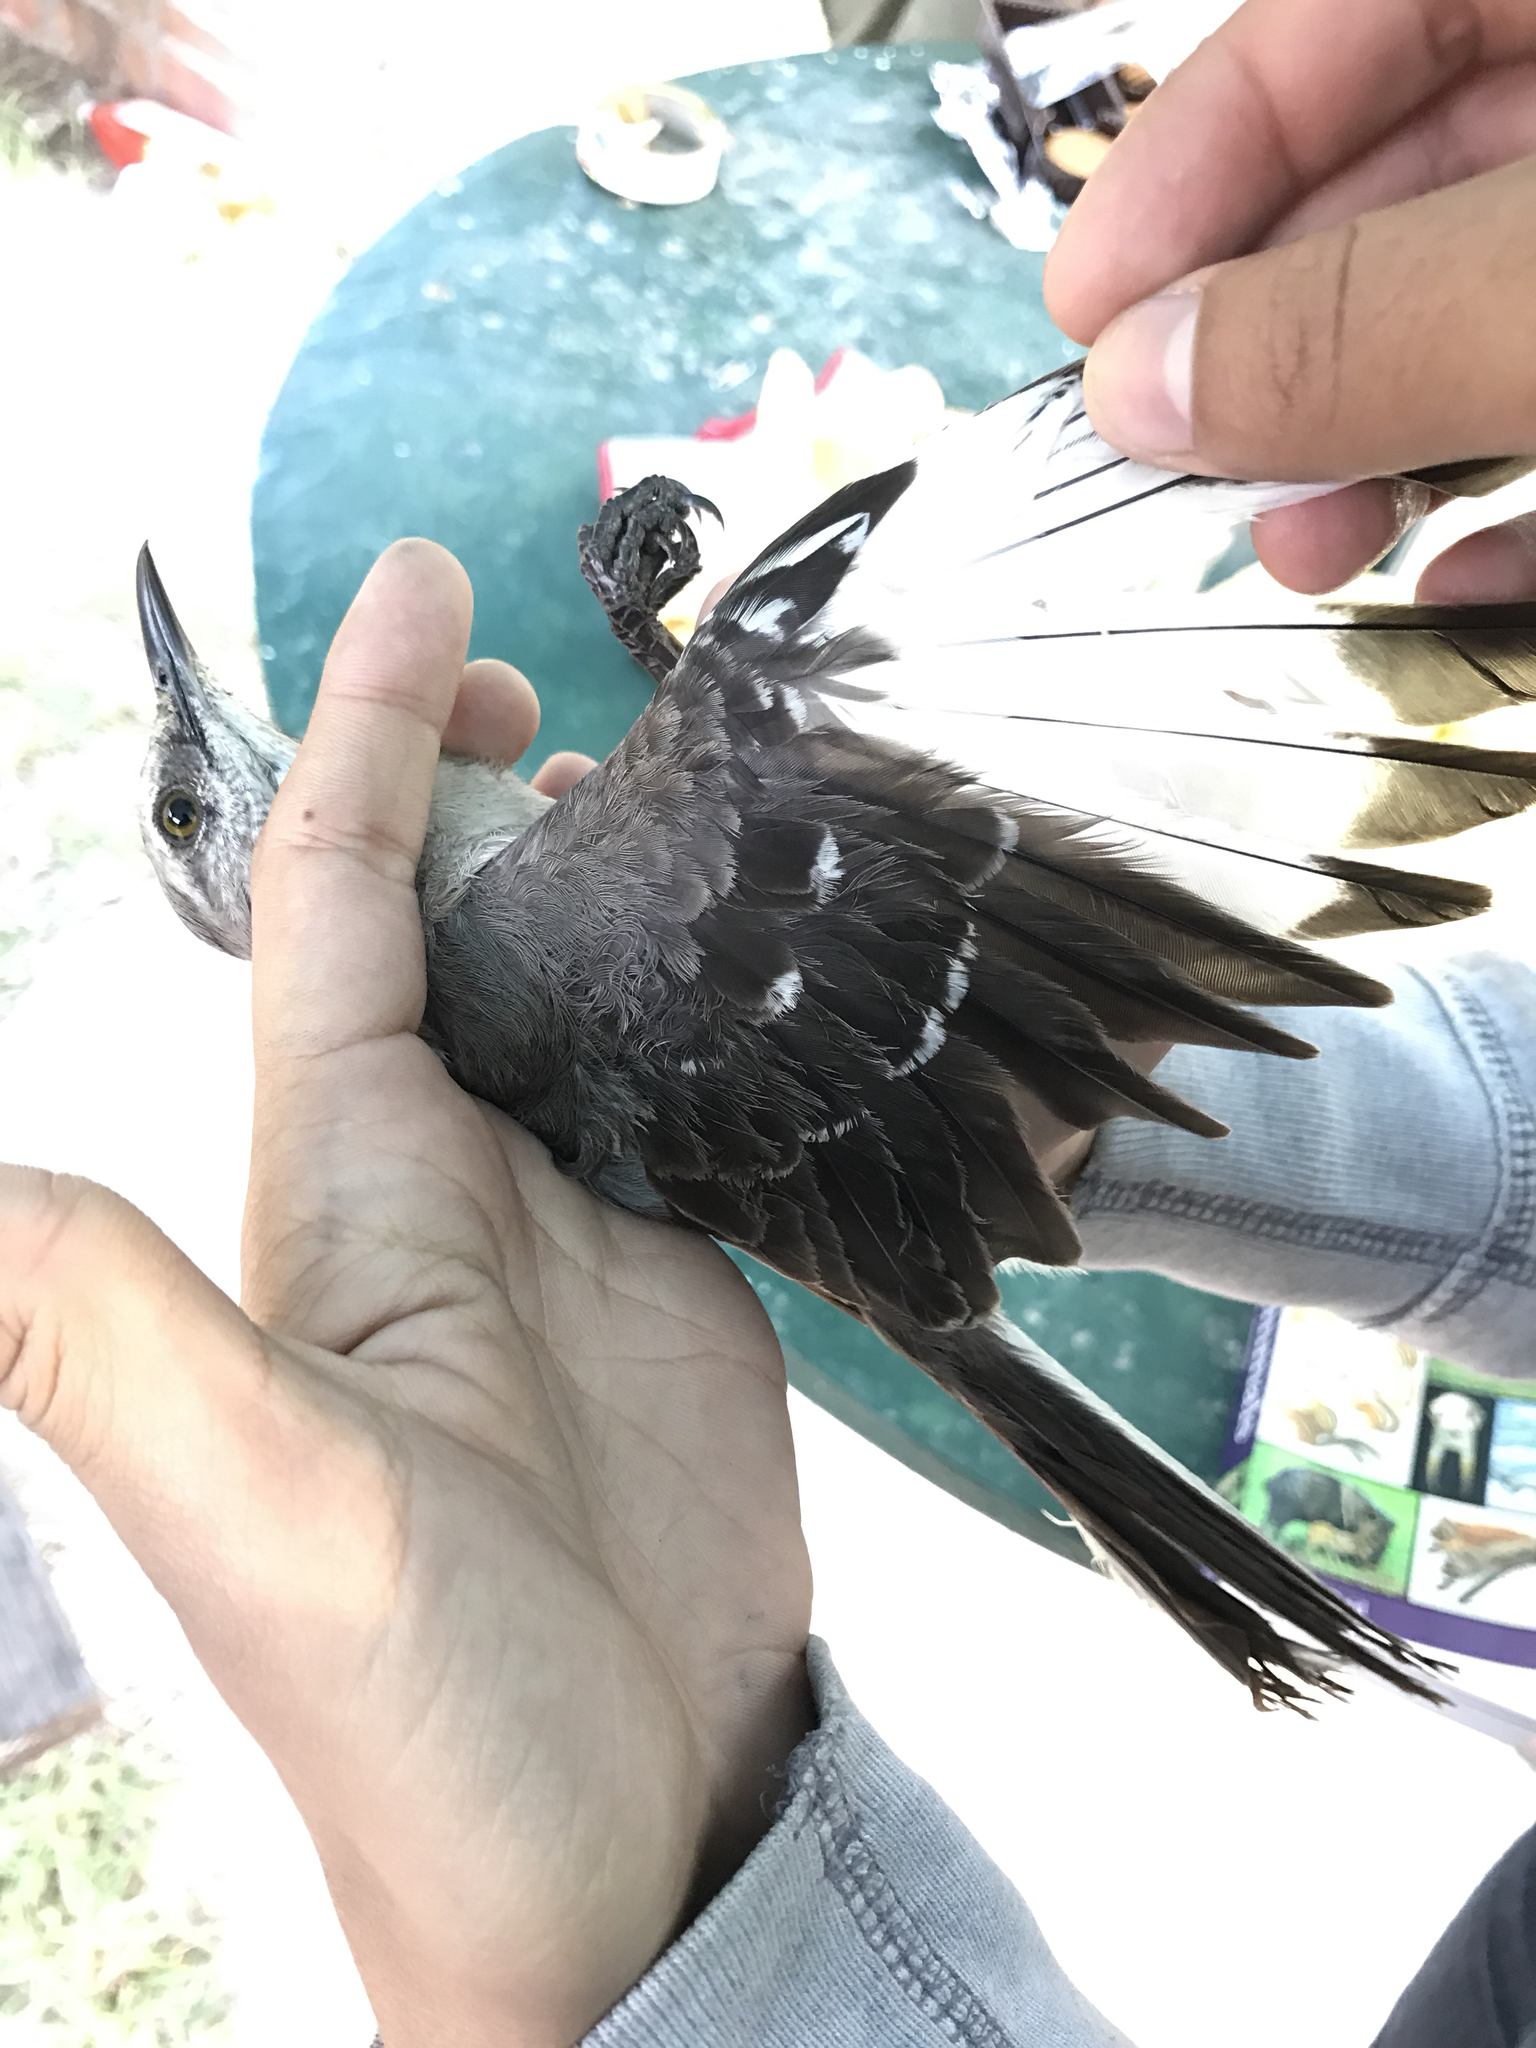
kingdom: Animalia
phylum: Chordata
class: Aves
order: Passeriformes
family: Mimidae
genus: Mimus
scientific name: Mimus polyglottos
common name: Northern mockingbird
